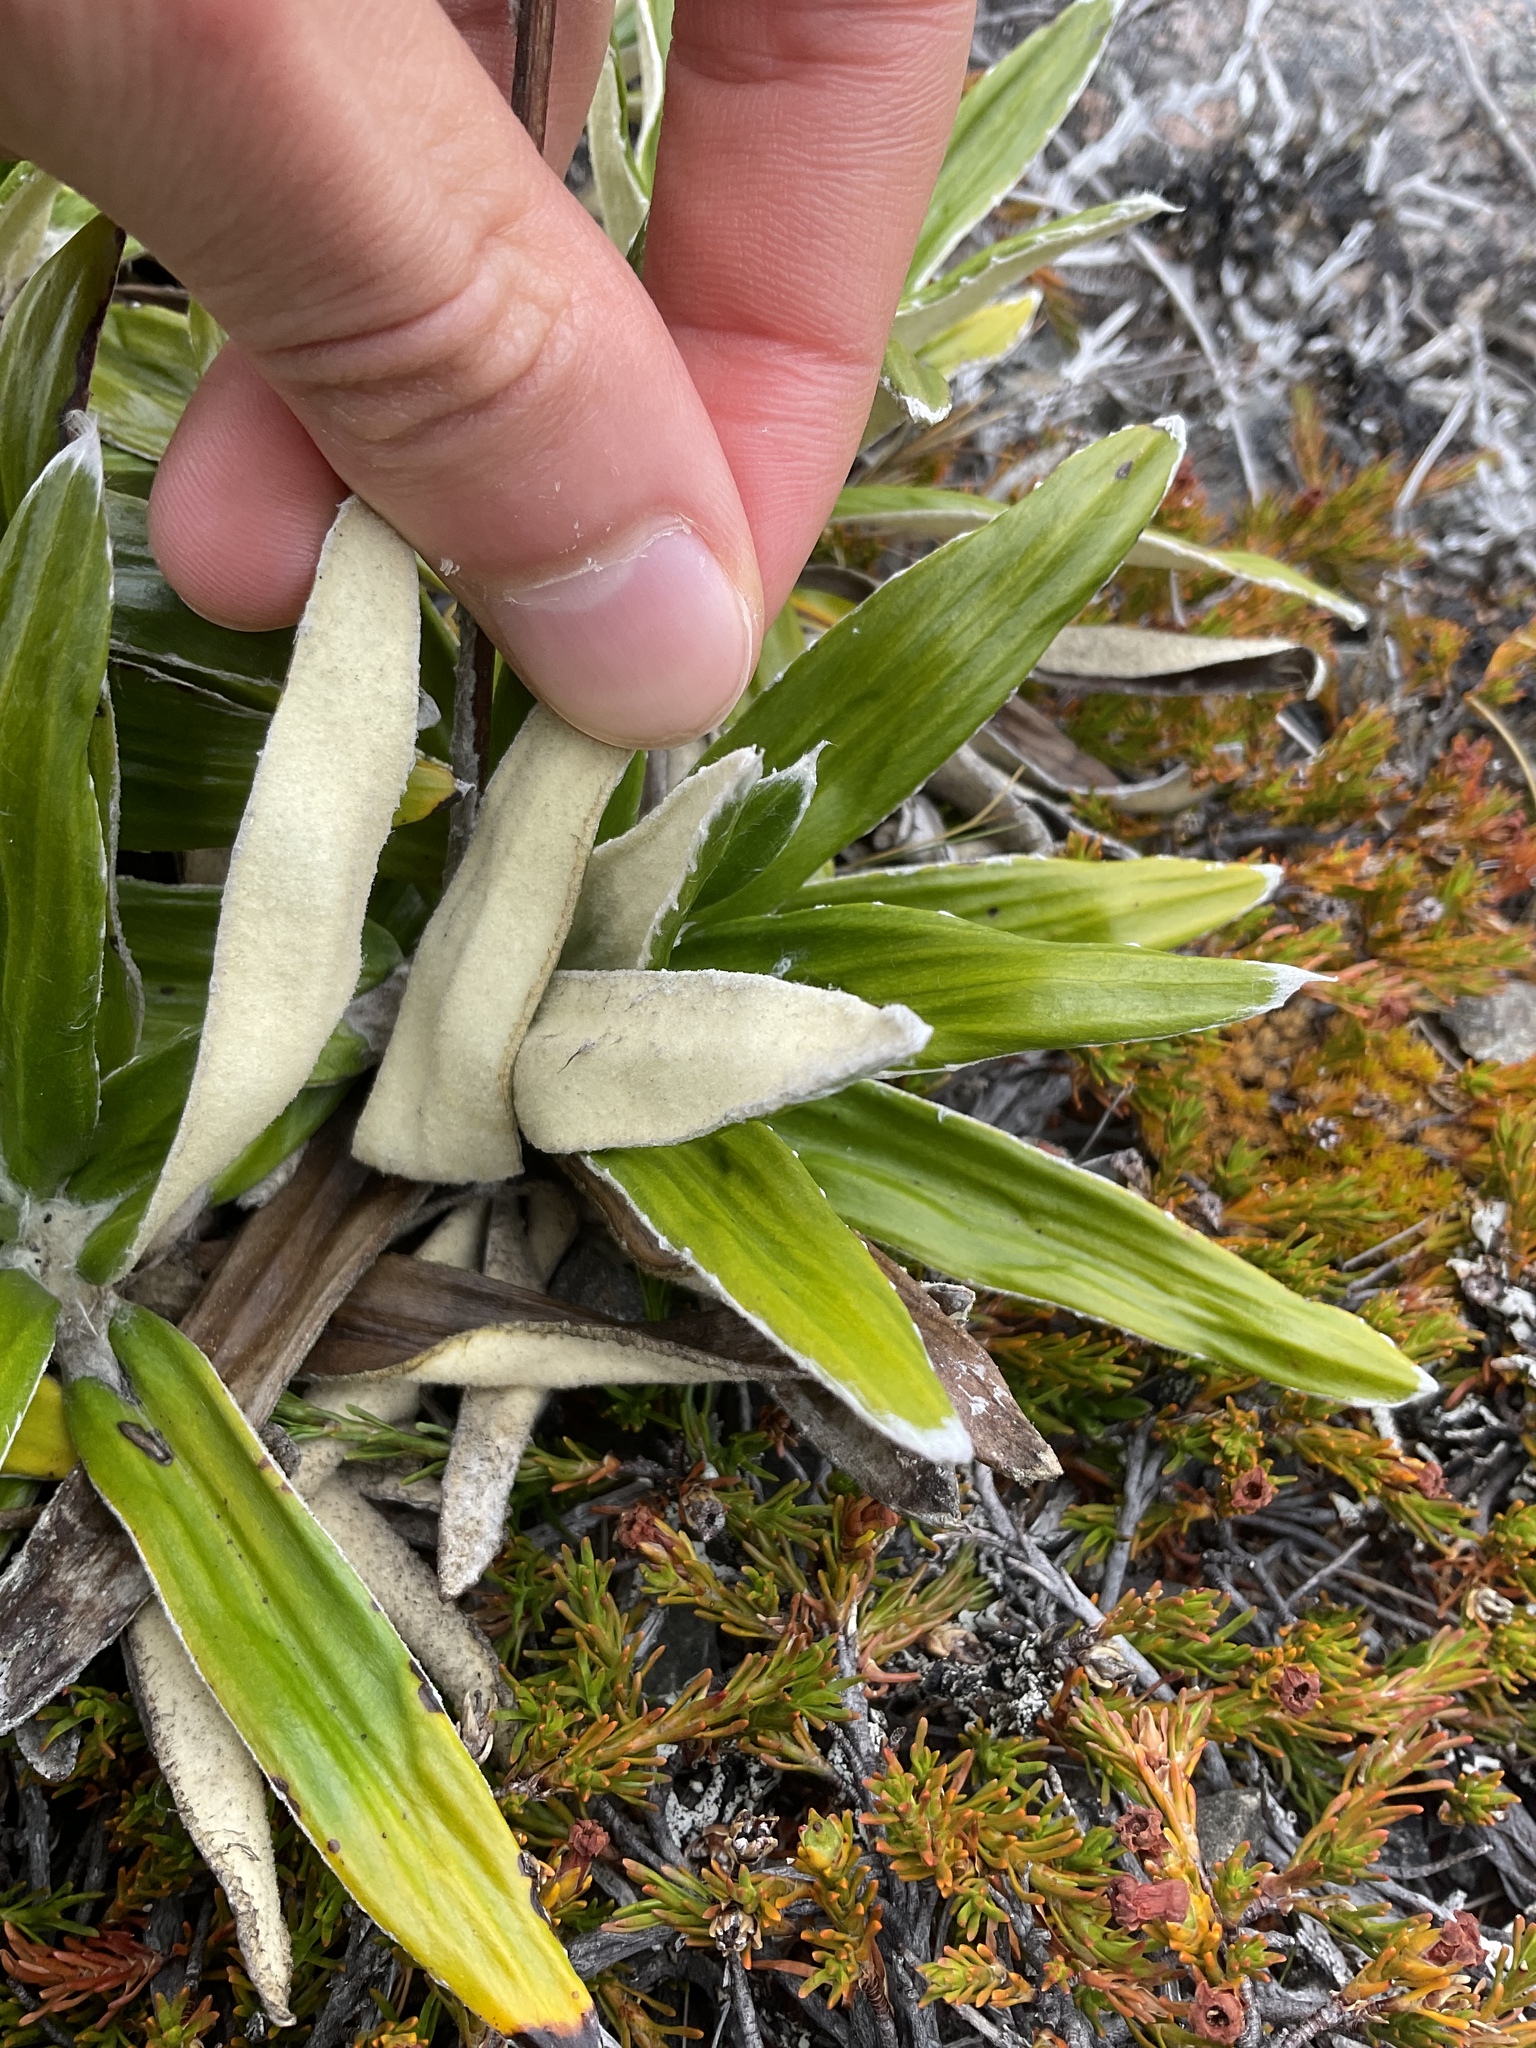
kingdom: Plantae
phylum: Tracheophyta
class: Magnoliopsida
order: Asterales
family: Asteraceae
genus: Celmisia
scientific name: Celmisia spectabilis
